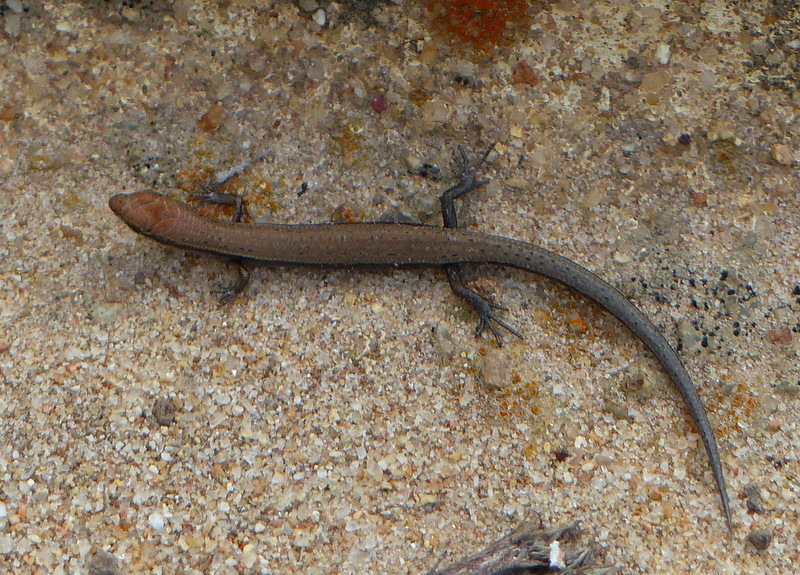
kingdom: Animalia
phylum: Chordata
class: Squamata
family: Scincidae
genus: Menetia
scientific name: Menetia greyii
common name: Common dwarf skink
